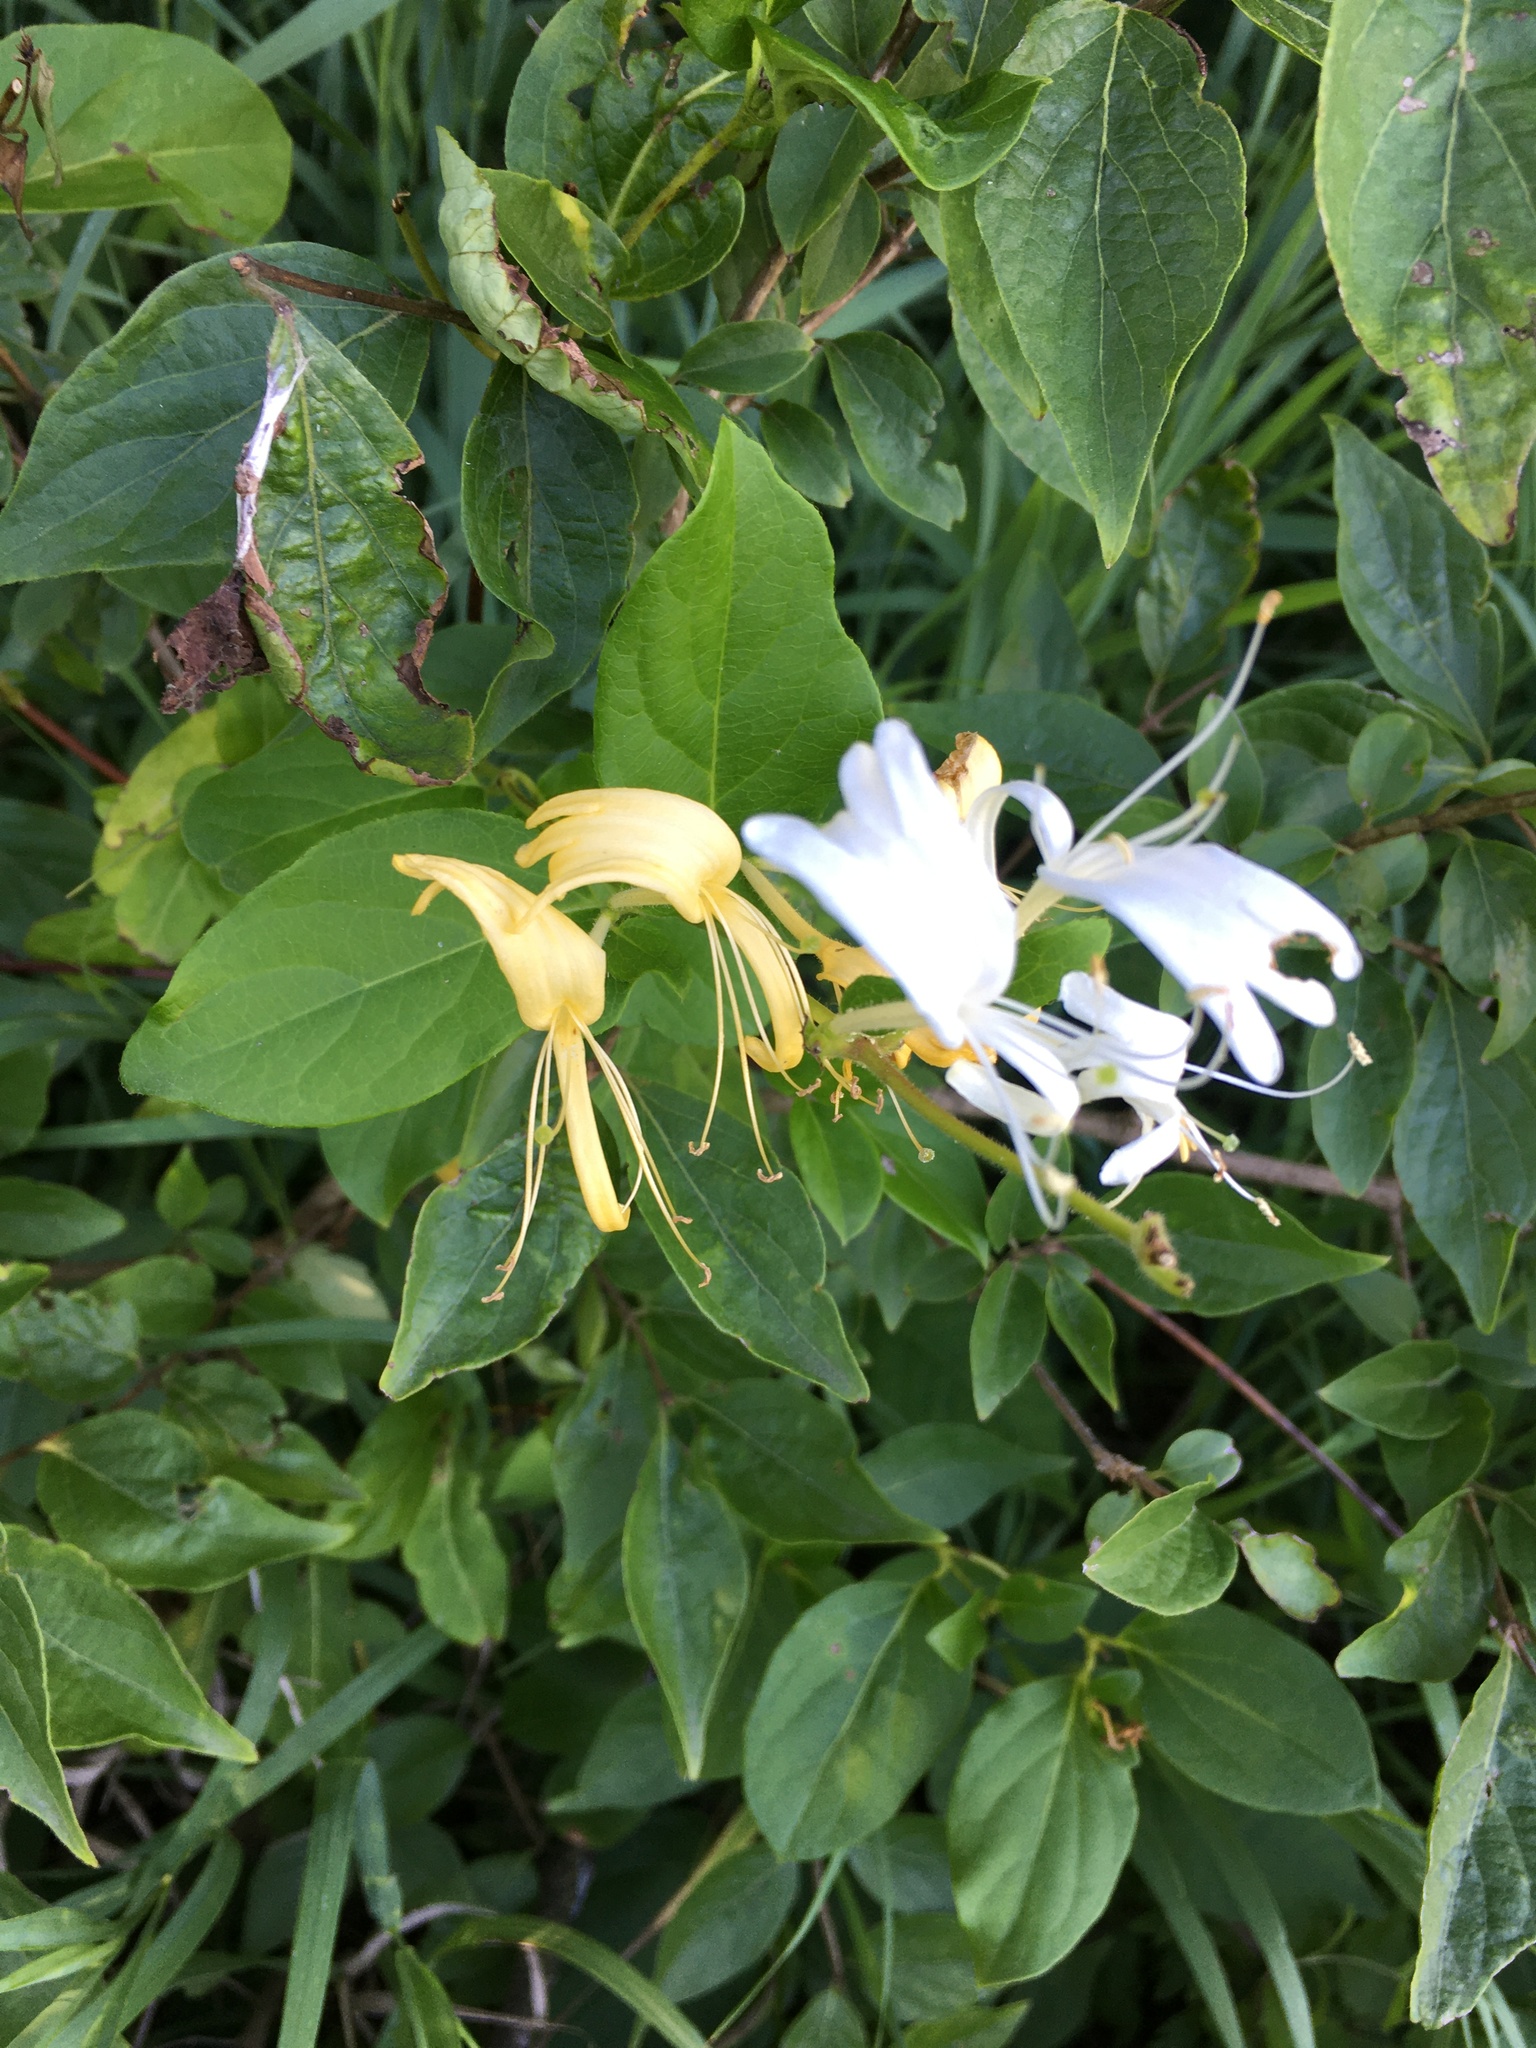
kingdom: Plantae
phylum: Tracheophyta
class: Magnoliopsida
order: Dipsacales
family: Caprifoliaceae
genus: Lonicera
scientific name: Lonicera japonica
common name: Japanese honeysuckle
